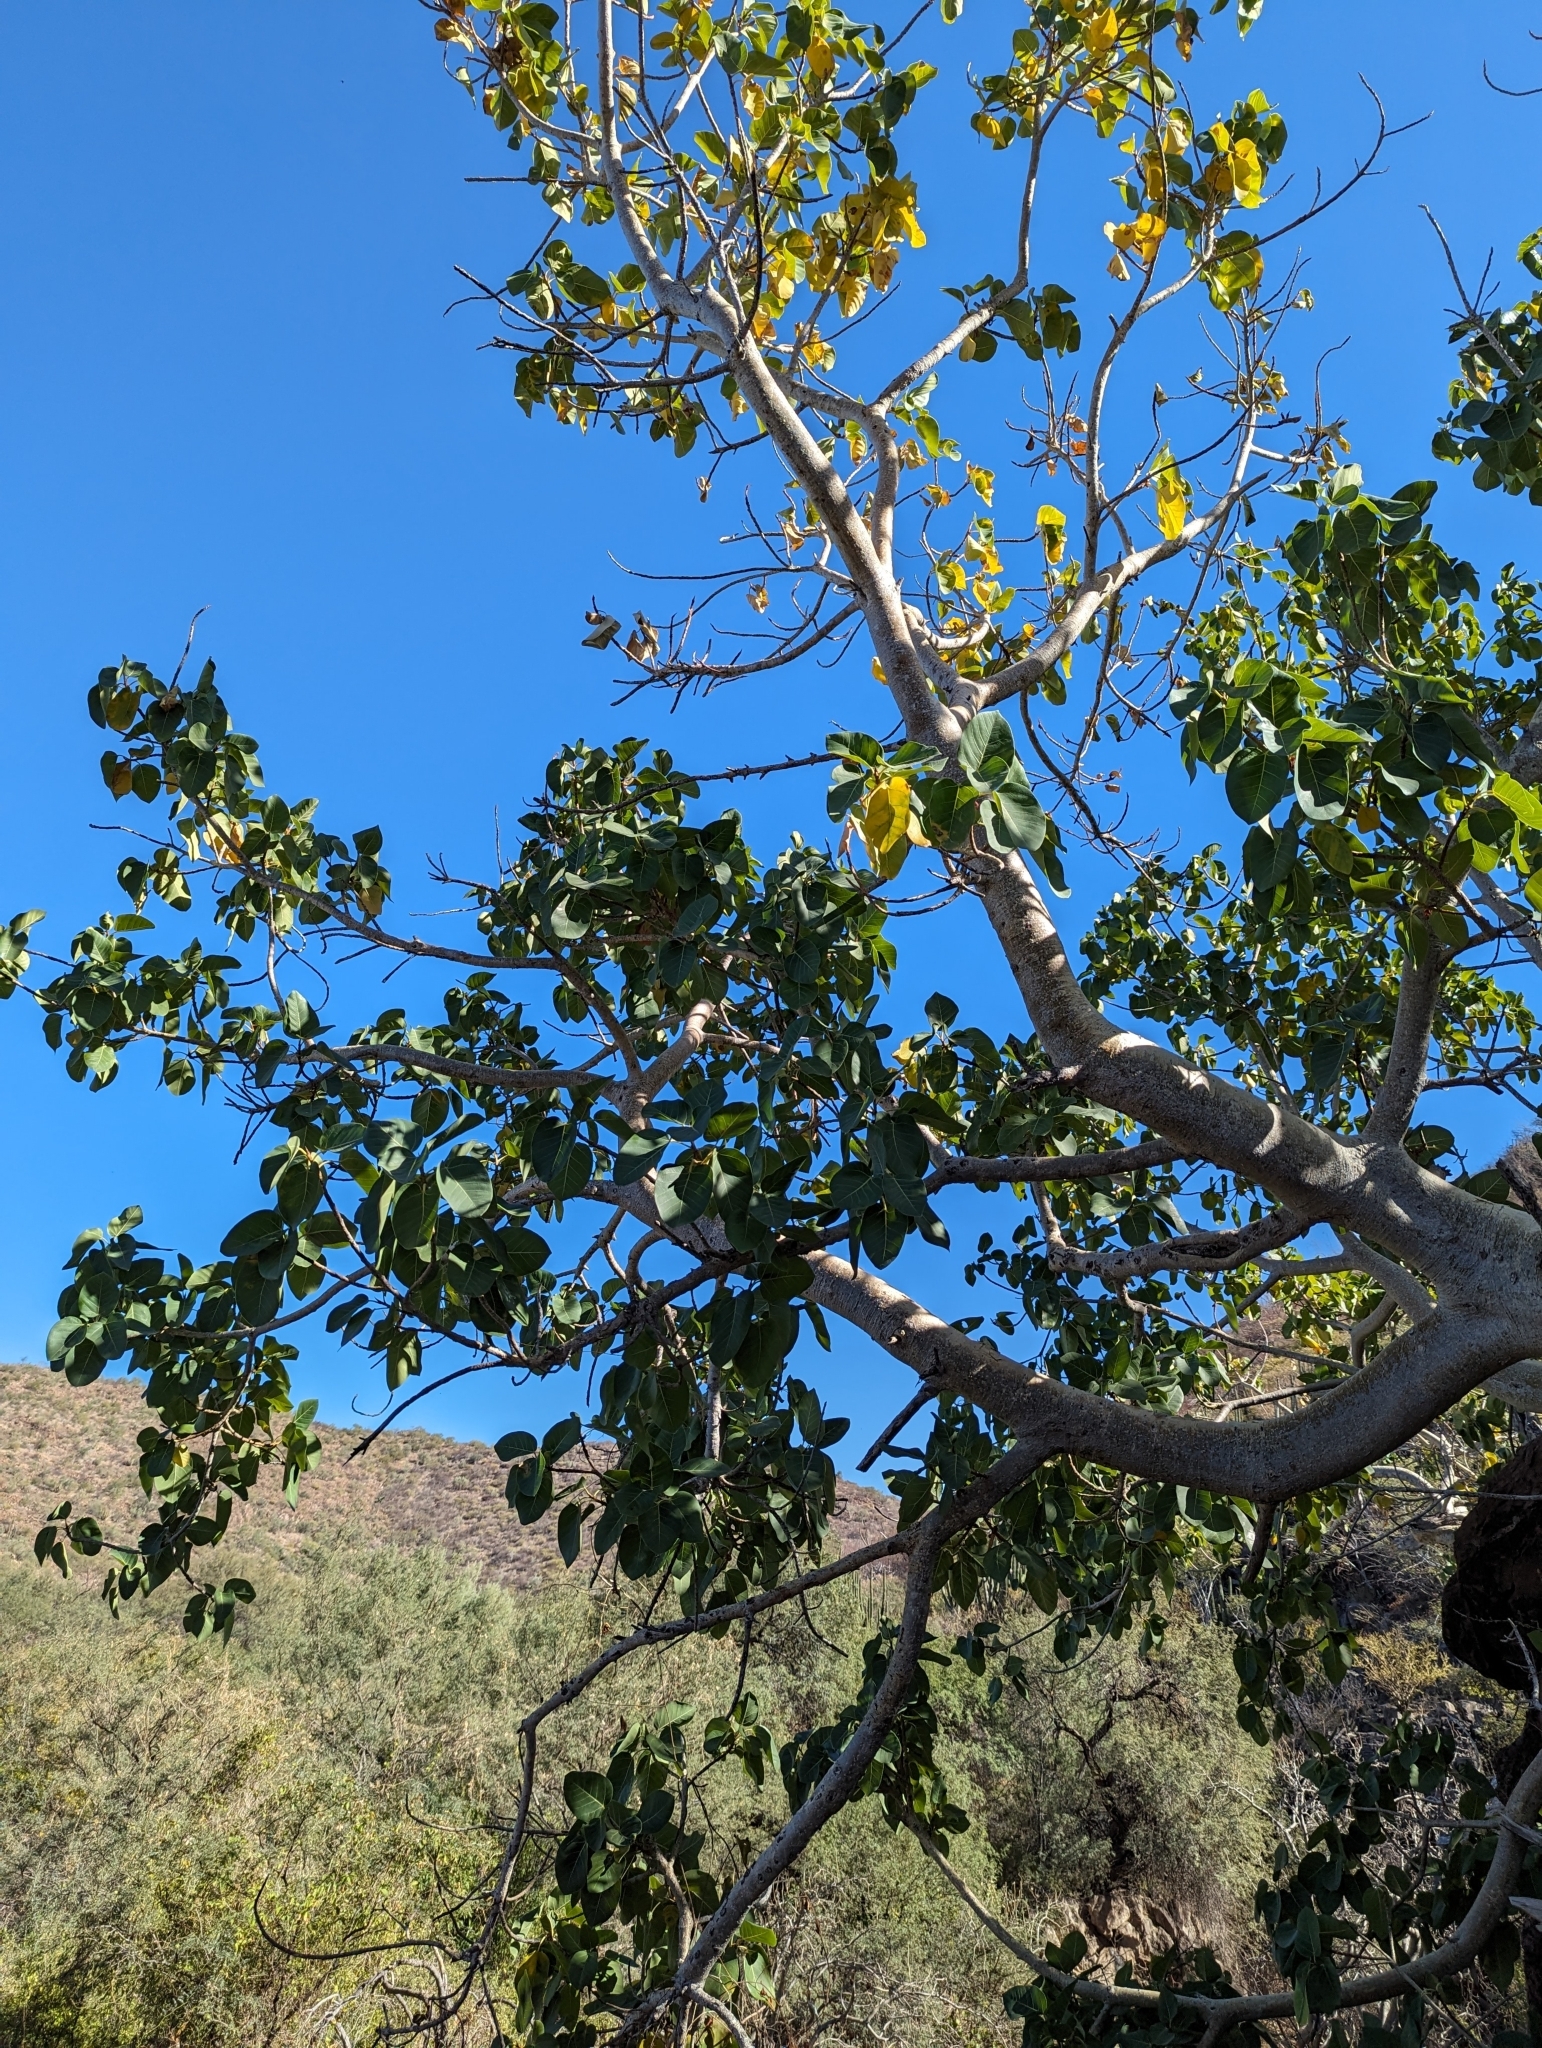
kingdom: Plantae
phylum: Tracheophyta
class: Magnoliopsida
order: Rosales
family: Moraceae
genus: Ficus
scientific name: Ficus petiolaris
